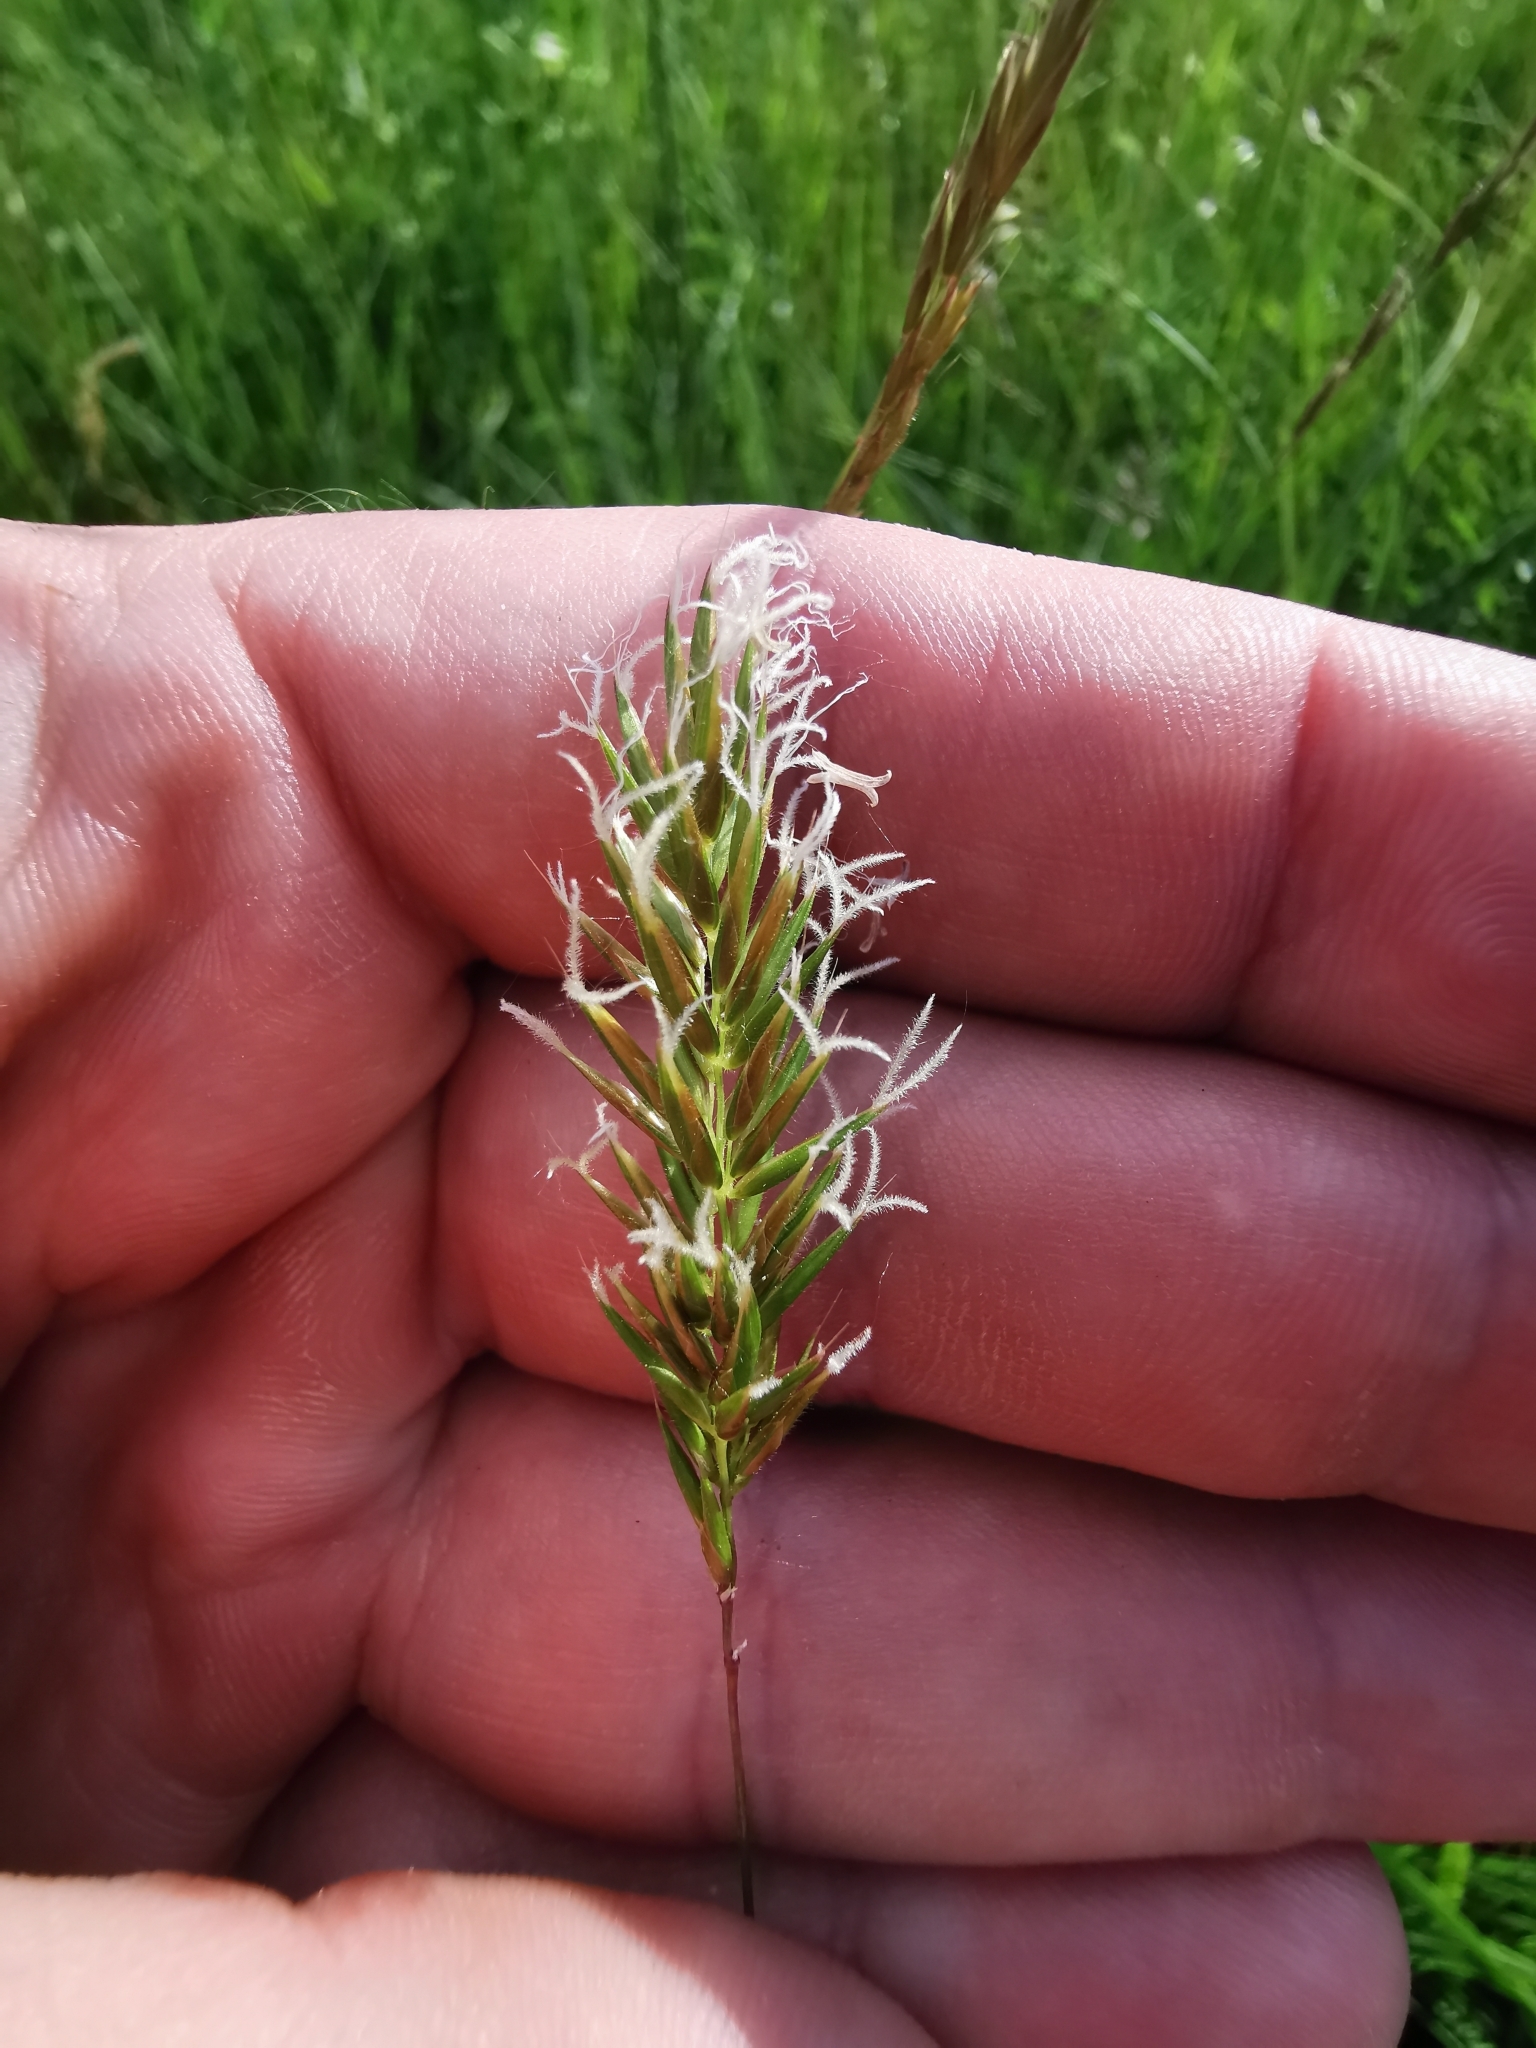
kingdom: Plantae
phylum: Tracheophyta
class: Liliopsida
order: Poales
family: Poaceae
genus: Anthoxanthum
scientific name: Anthoxanthum odoratum
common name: Sweet vernalgrass
